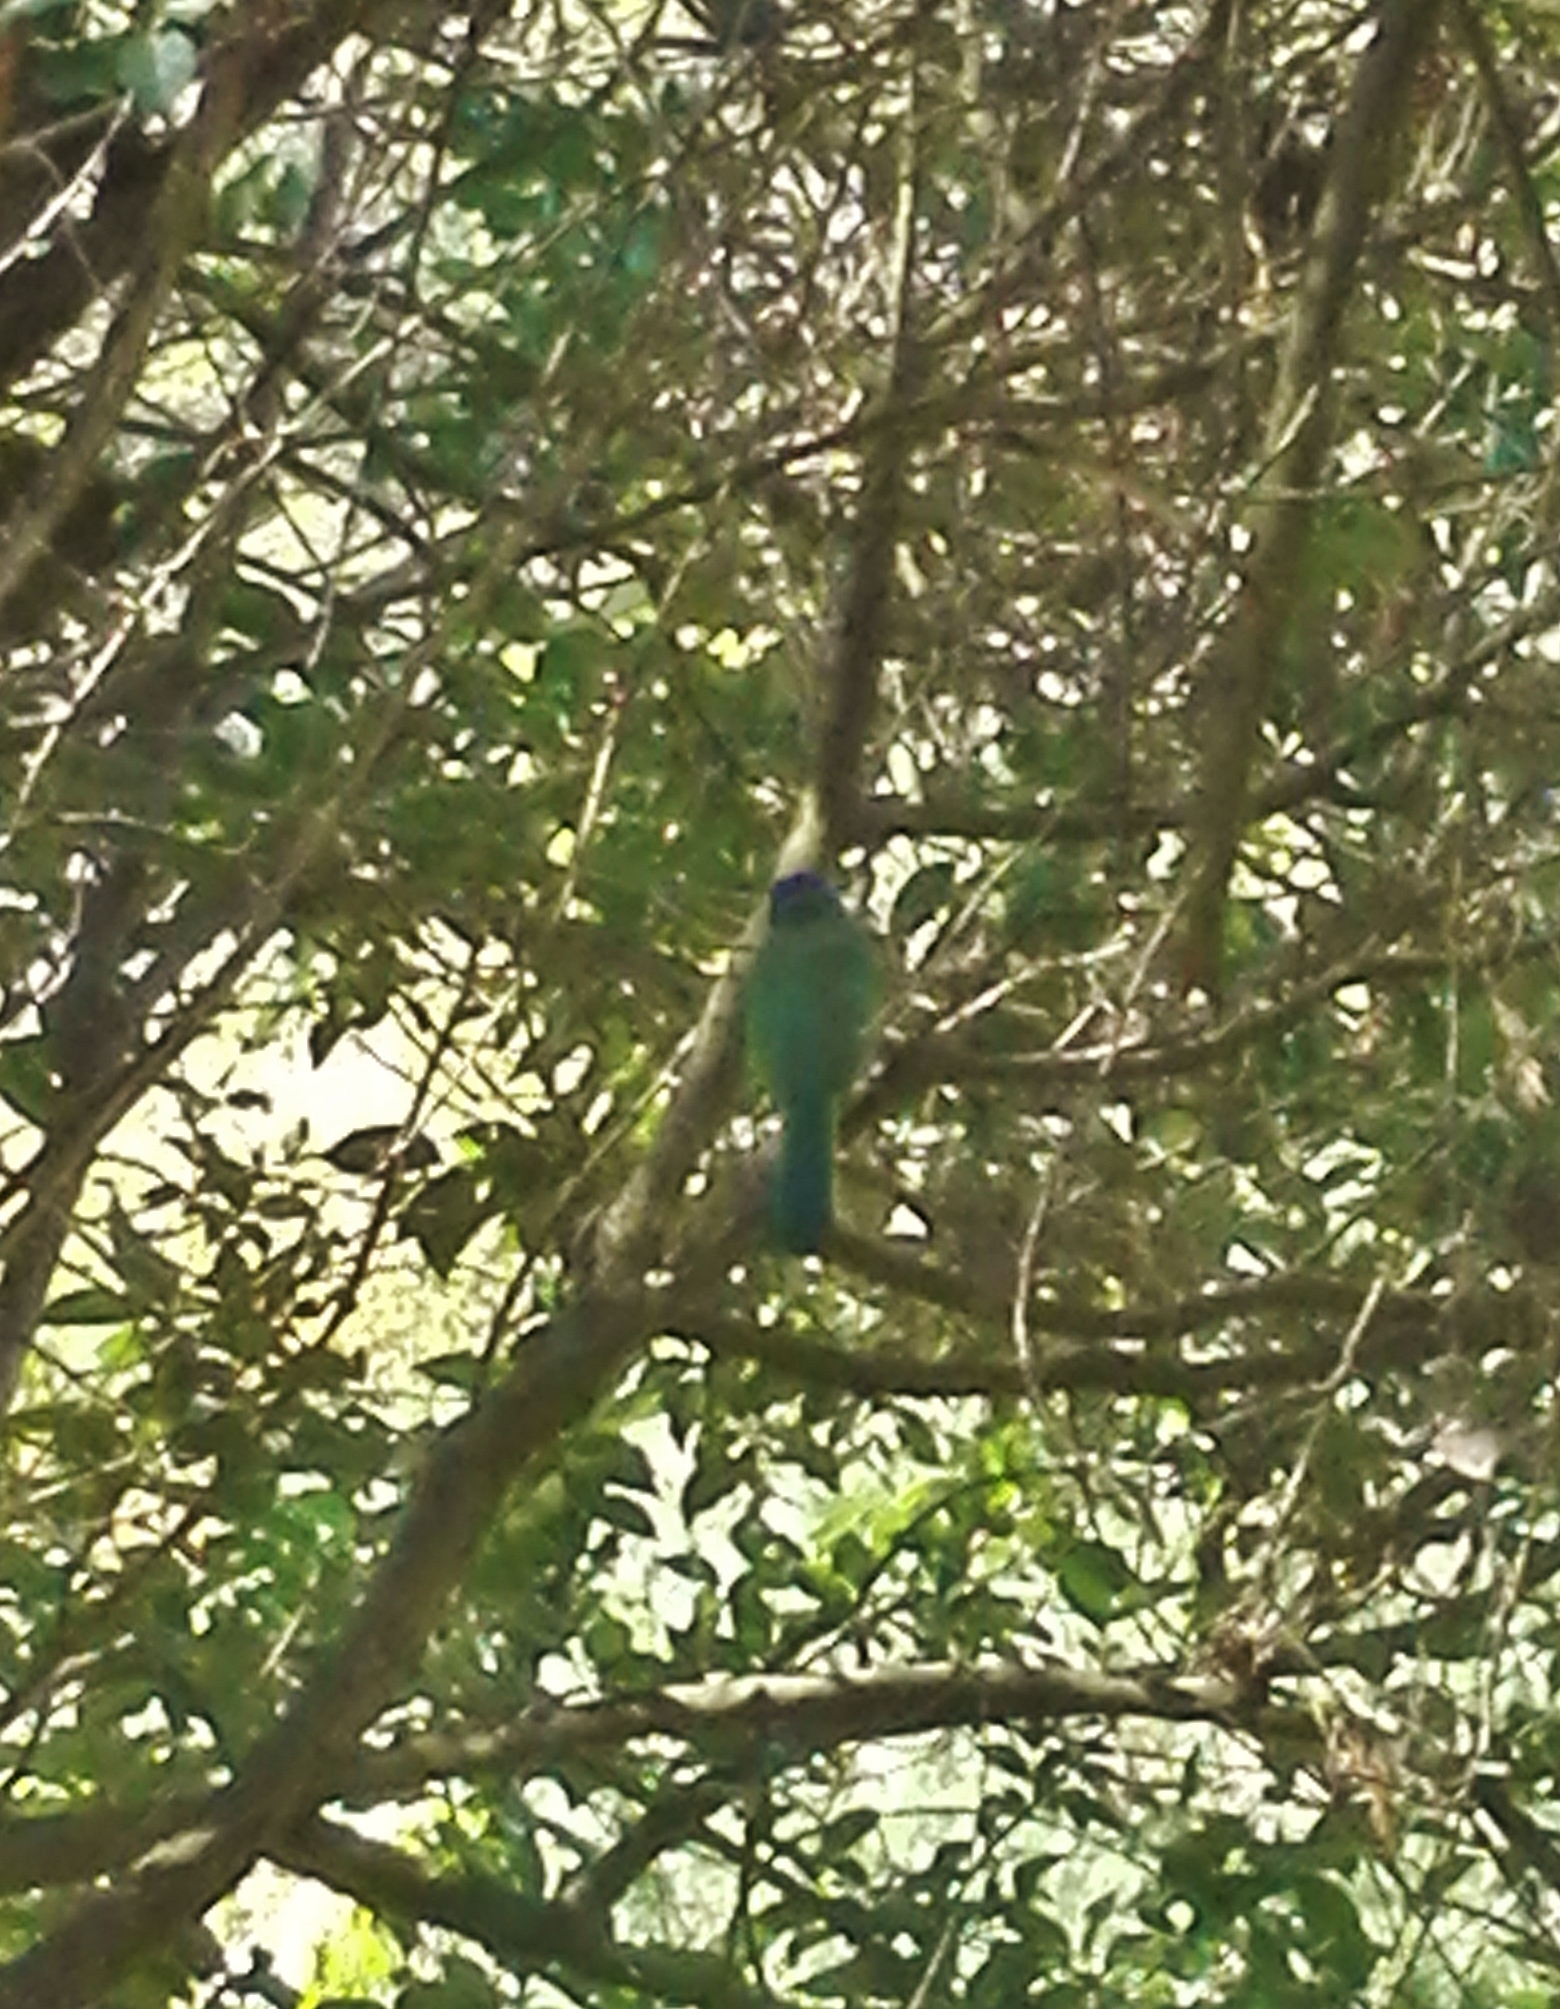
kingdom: Animalia
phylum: Chordata
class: Aves
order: Passeriformes
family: Corvidae
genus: Cyanocorax
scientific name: Cyanocorax yncas
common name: Green jay
